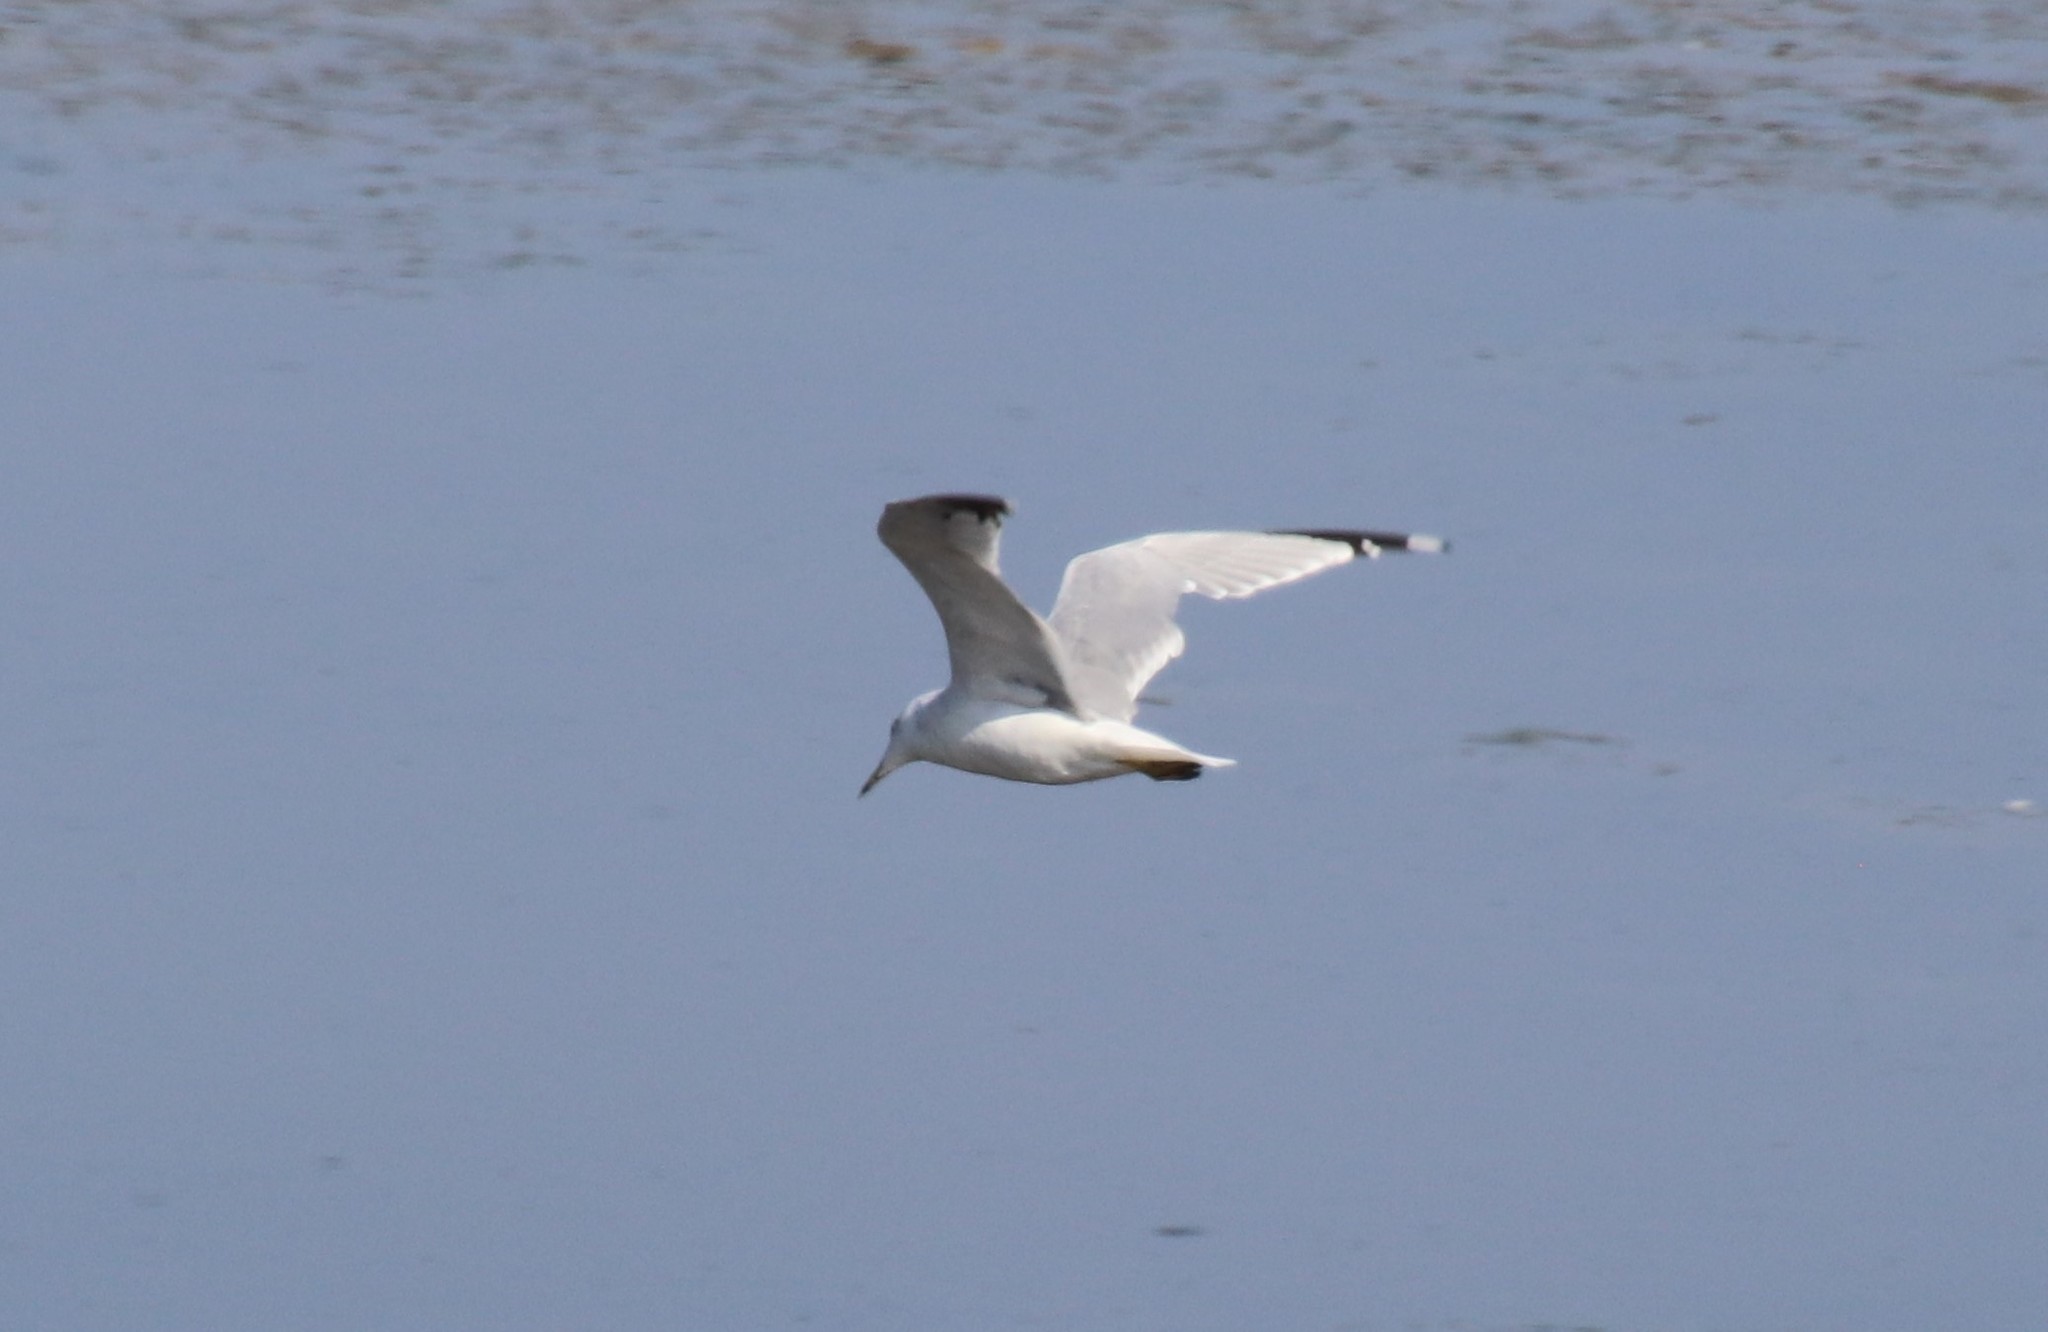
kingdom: Animalia
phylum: Chordata
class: Aves
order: Charadriiformes
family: Laridae
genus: Larus
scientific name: Larus delawarensis
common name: Ring-billed gull
